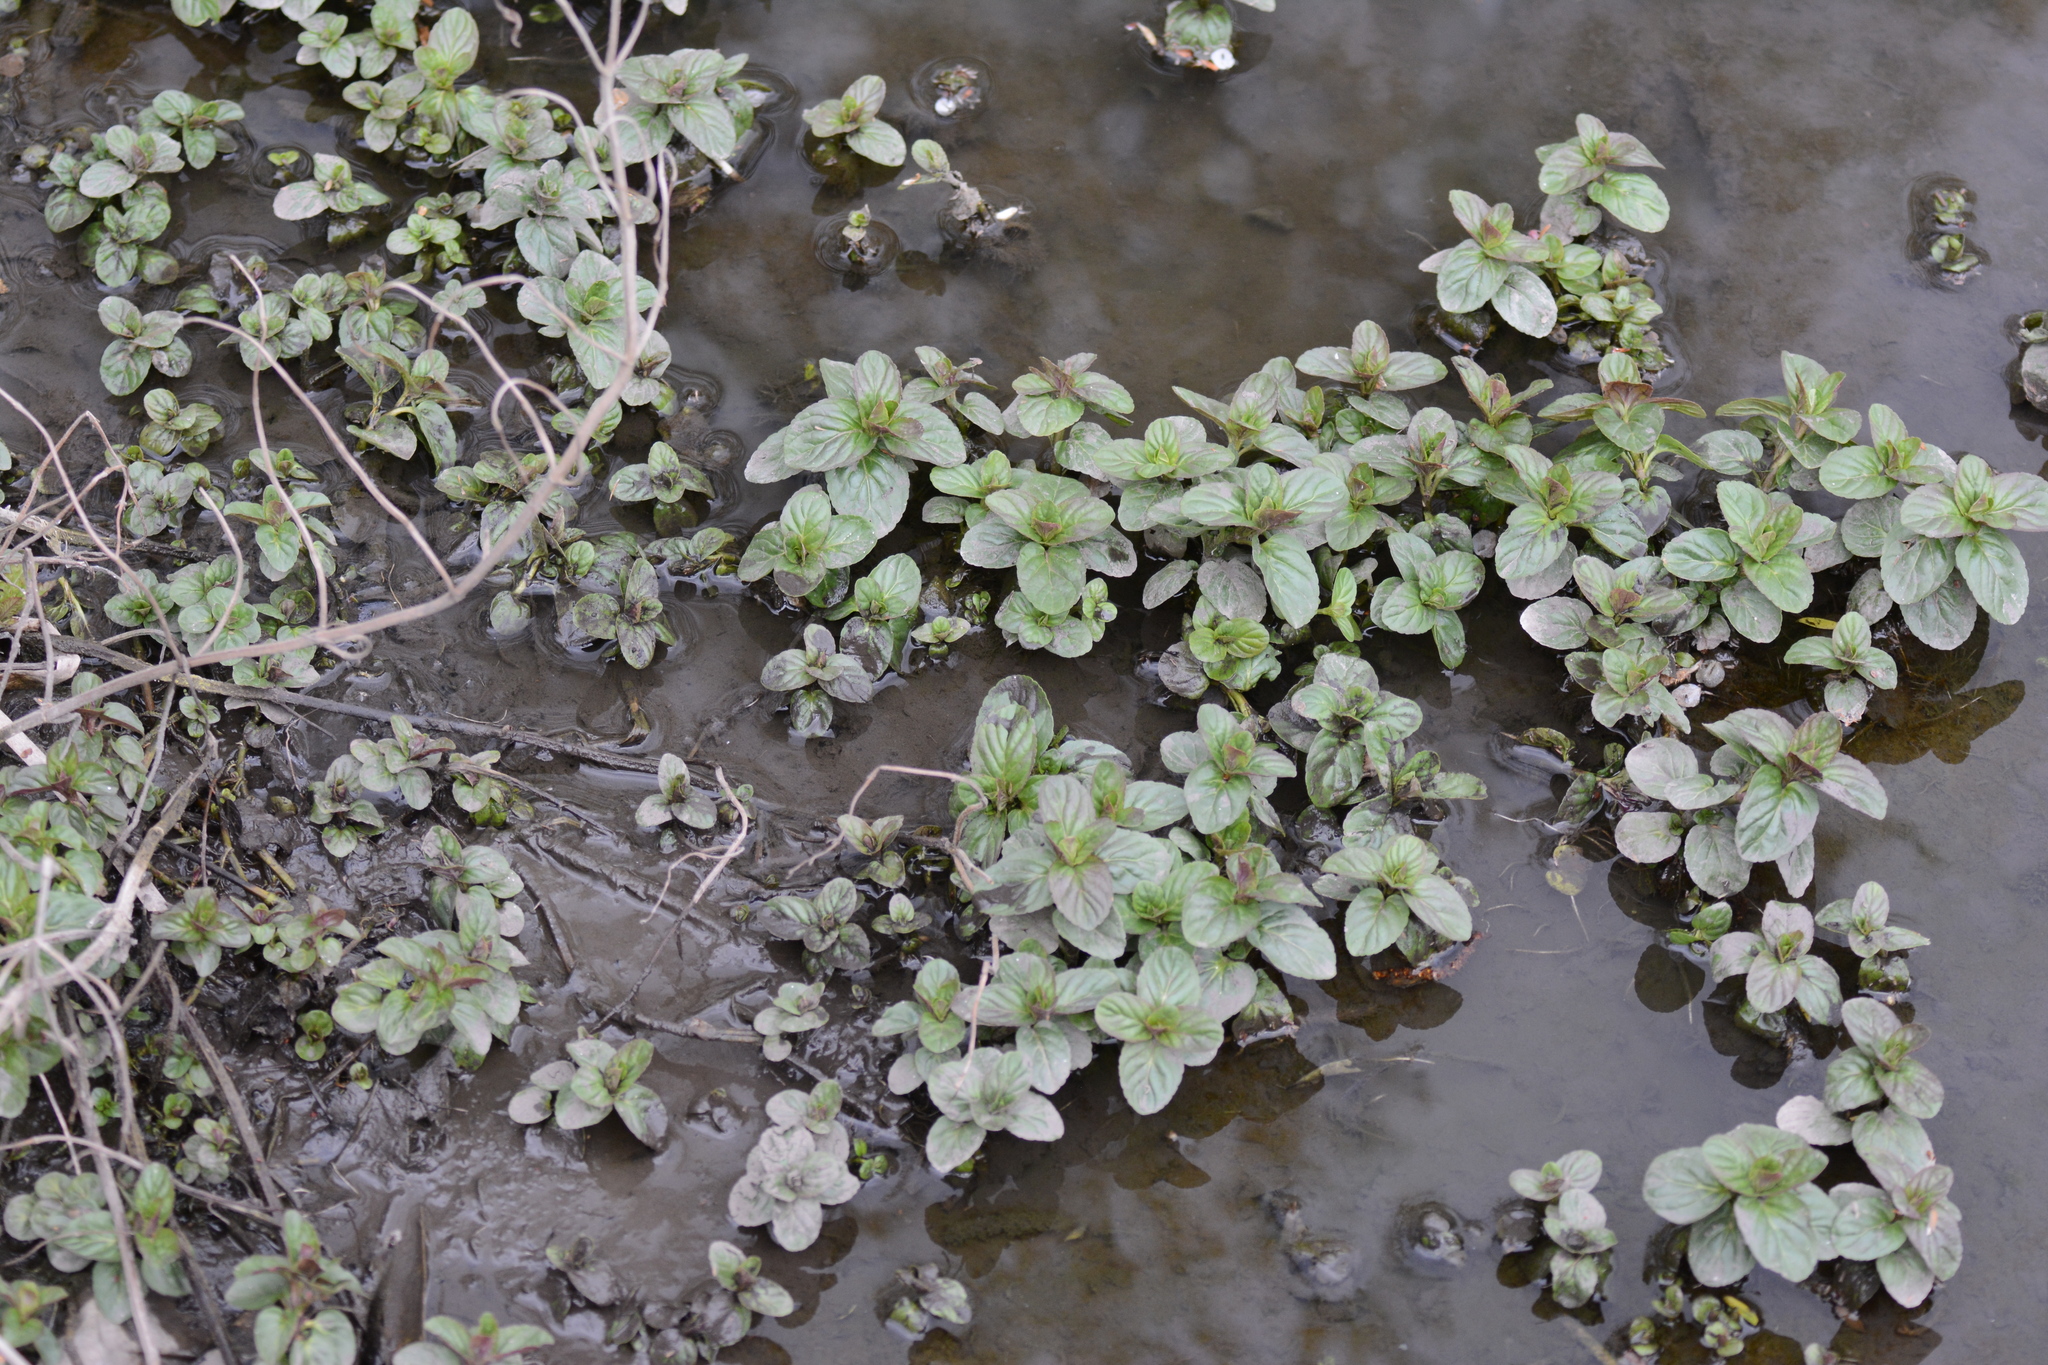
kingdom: Plantae
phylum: Tracheophyta
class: Magnoliopsida
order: Lamiales
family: Lamiaceae
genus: Mentha
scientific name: Mentha aquatica
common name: Water mint
